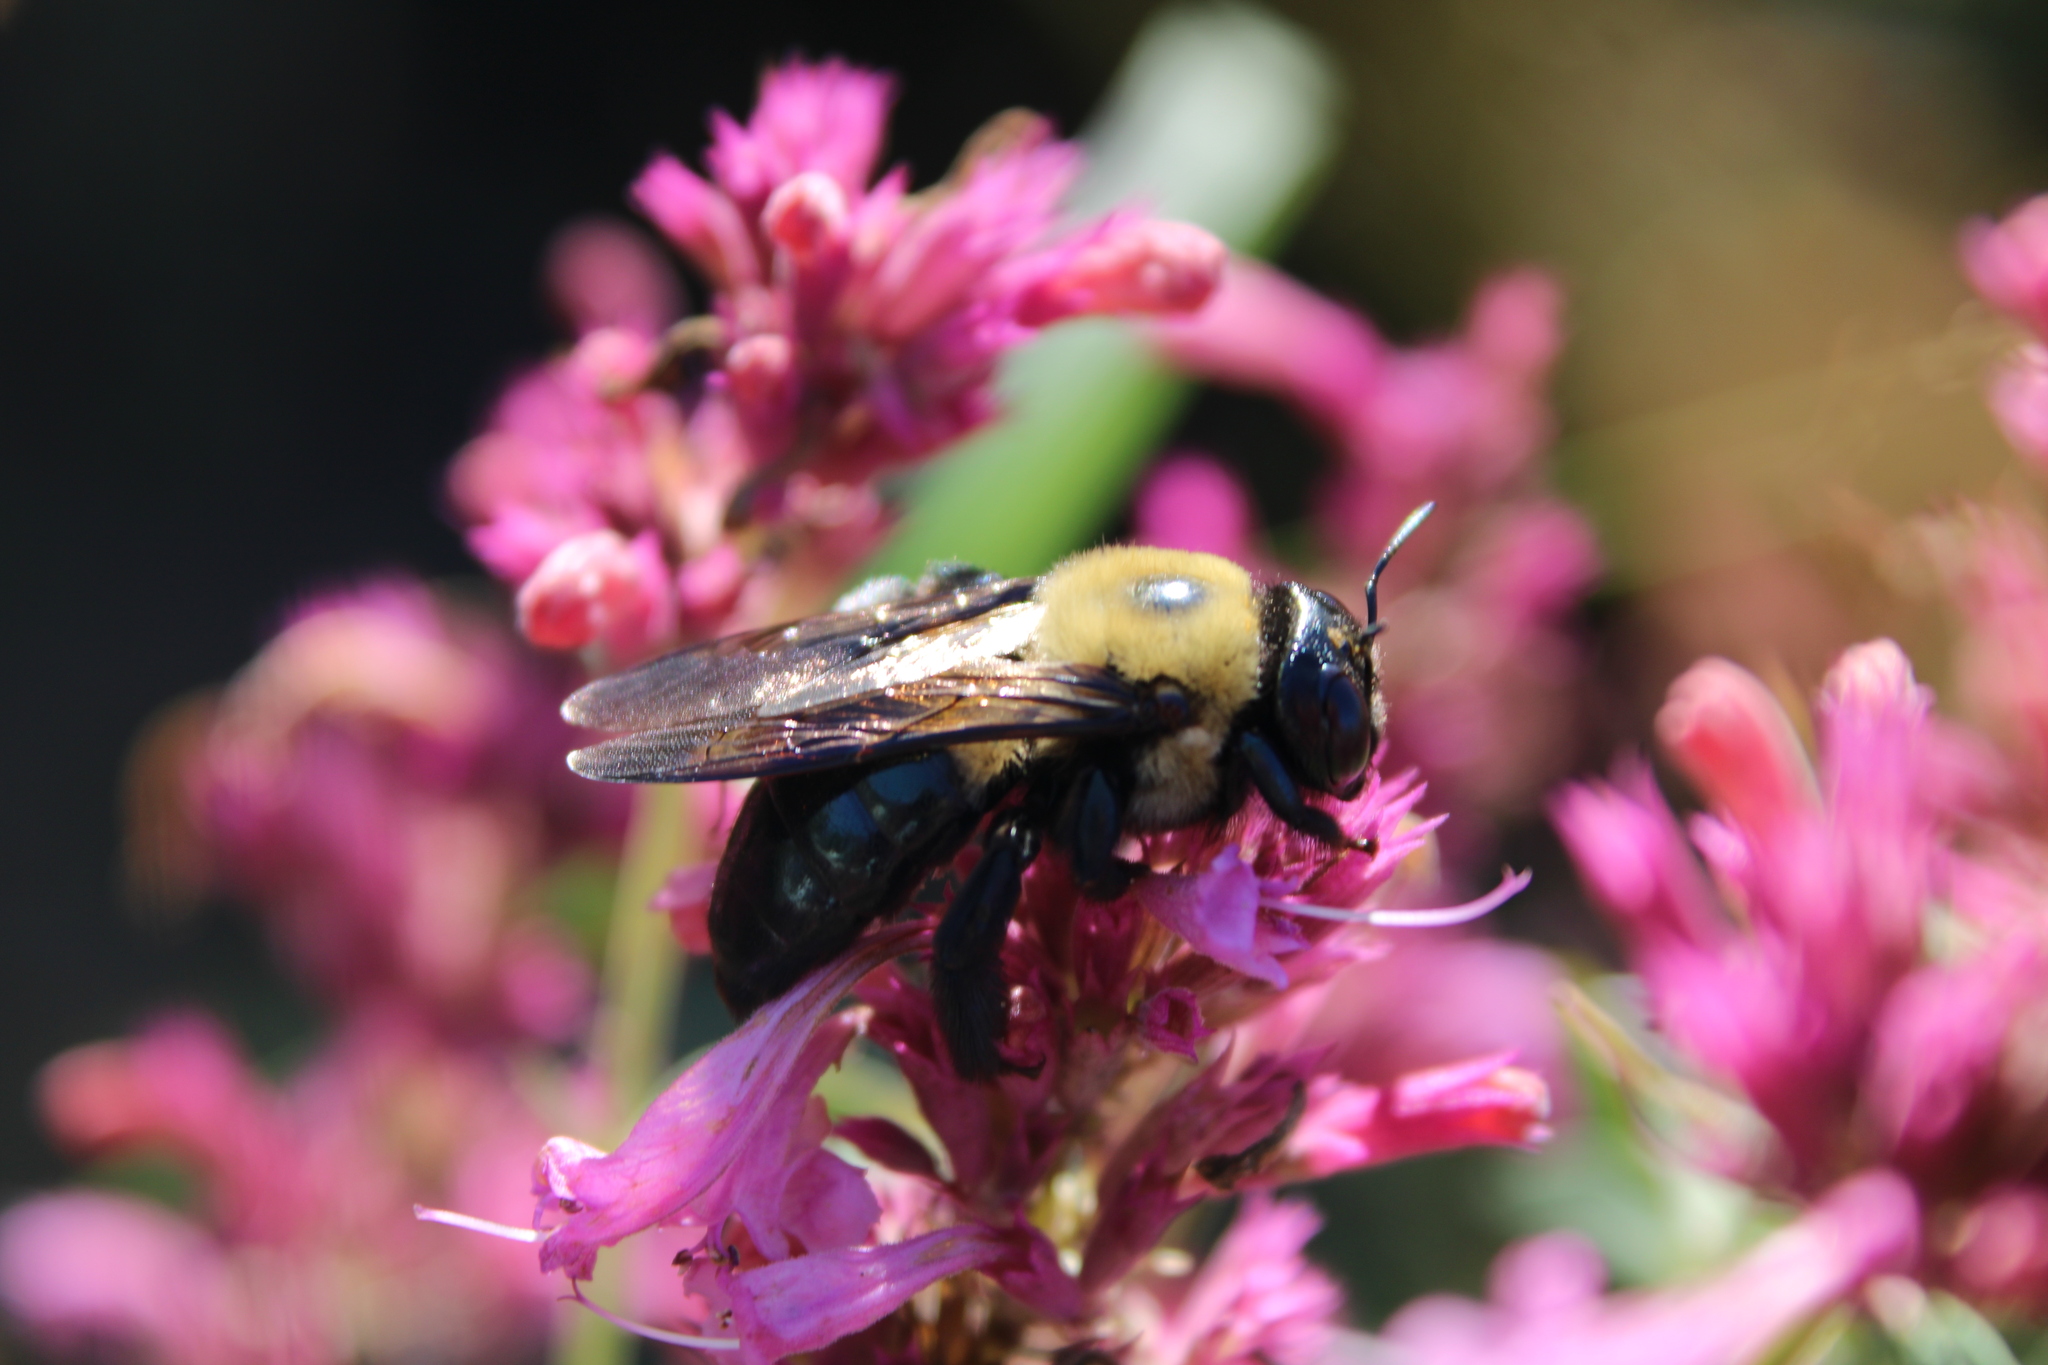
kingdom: Animalia
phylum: Arthropoda
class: Insecta
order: Hymenoptera
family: Apidae
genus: Xylocopa
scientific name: Xylocopa virginica
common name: Carpenter bee
